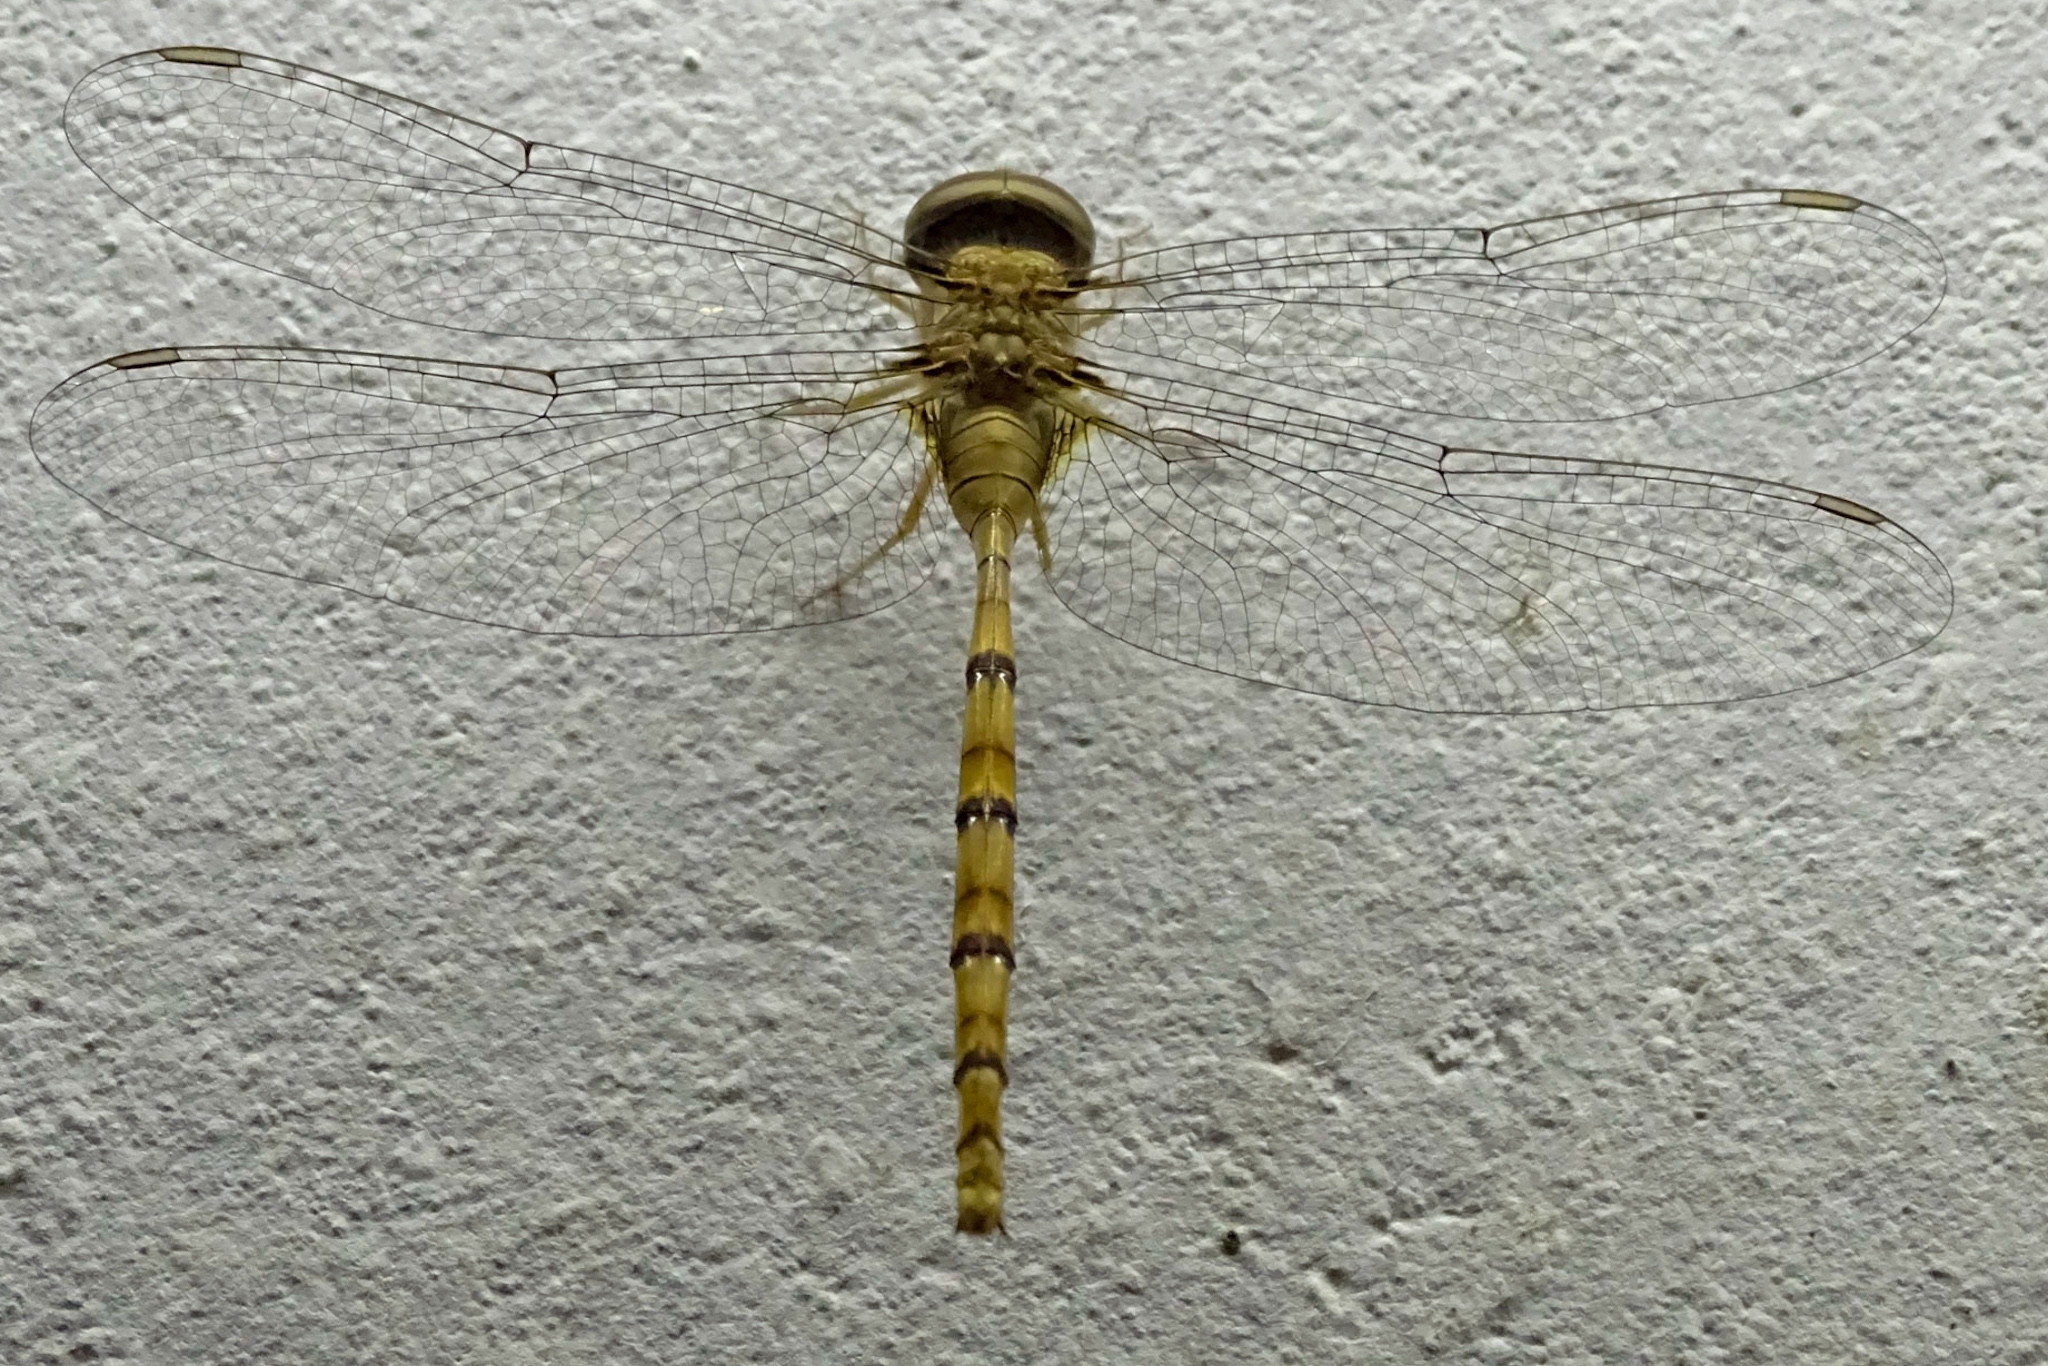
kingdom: Animalia
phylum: Arthropoda
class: Insecta
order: Odonata
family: Libellulidae
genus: Zyxomma
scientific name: Zyxomma petiolatum
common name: Dingy dusk-darter
